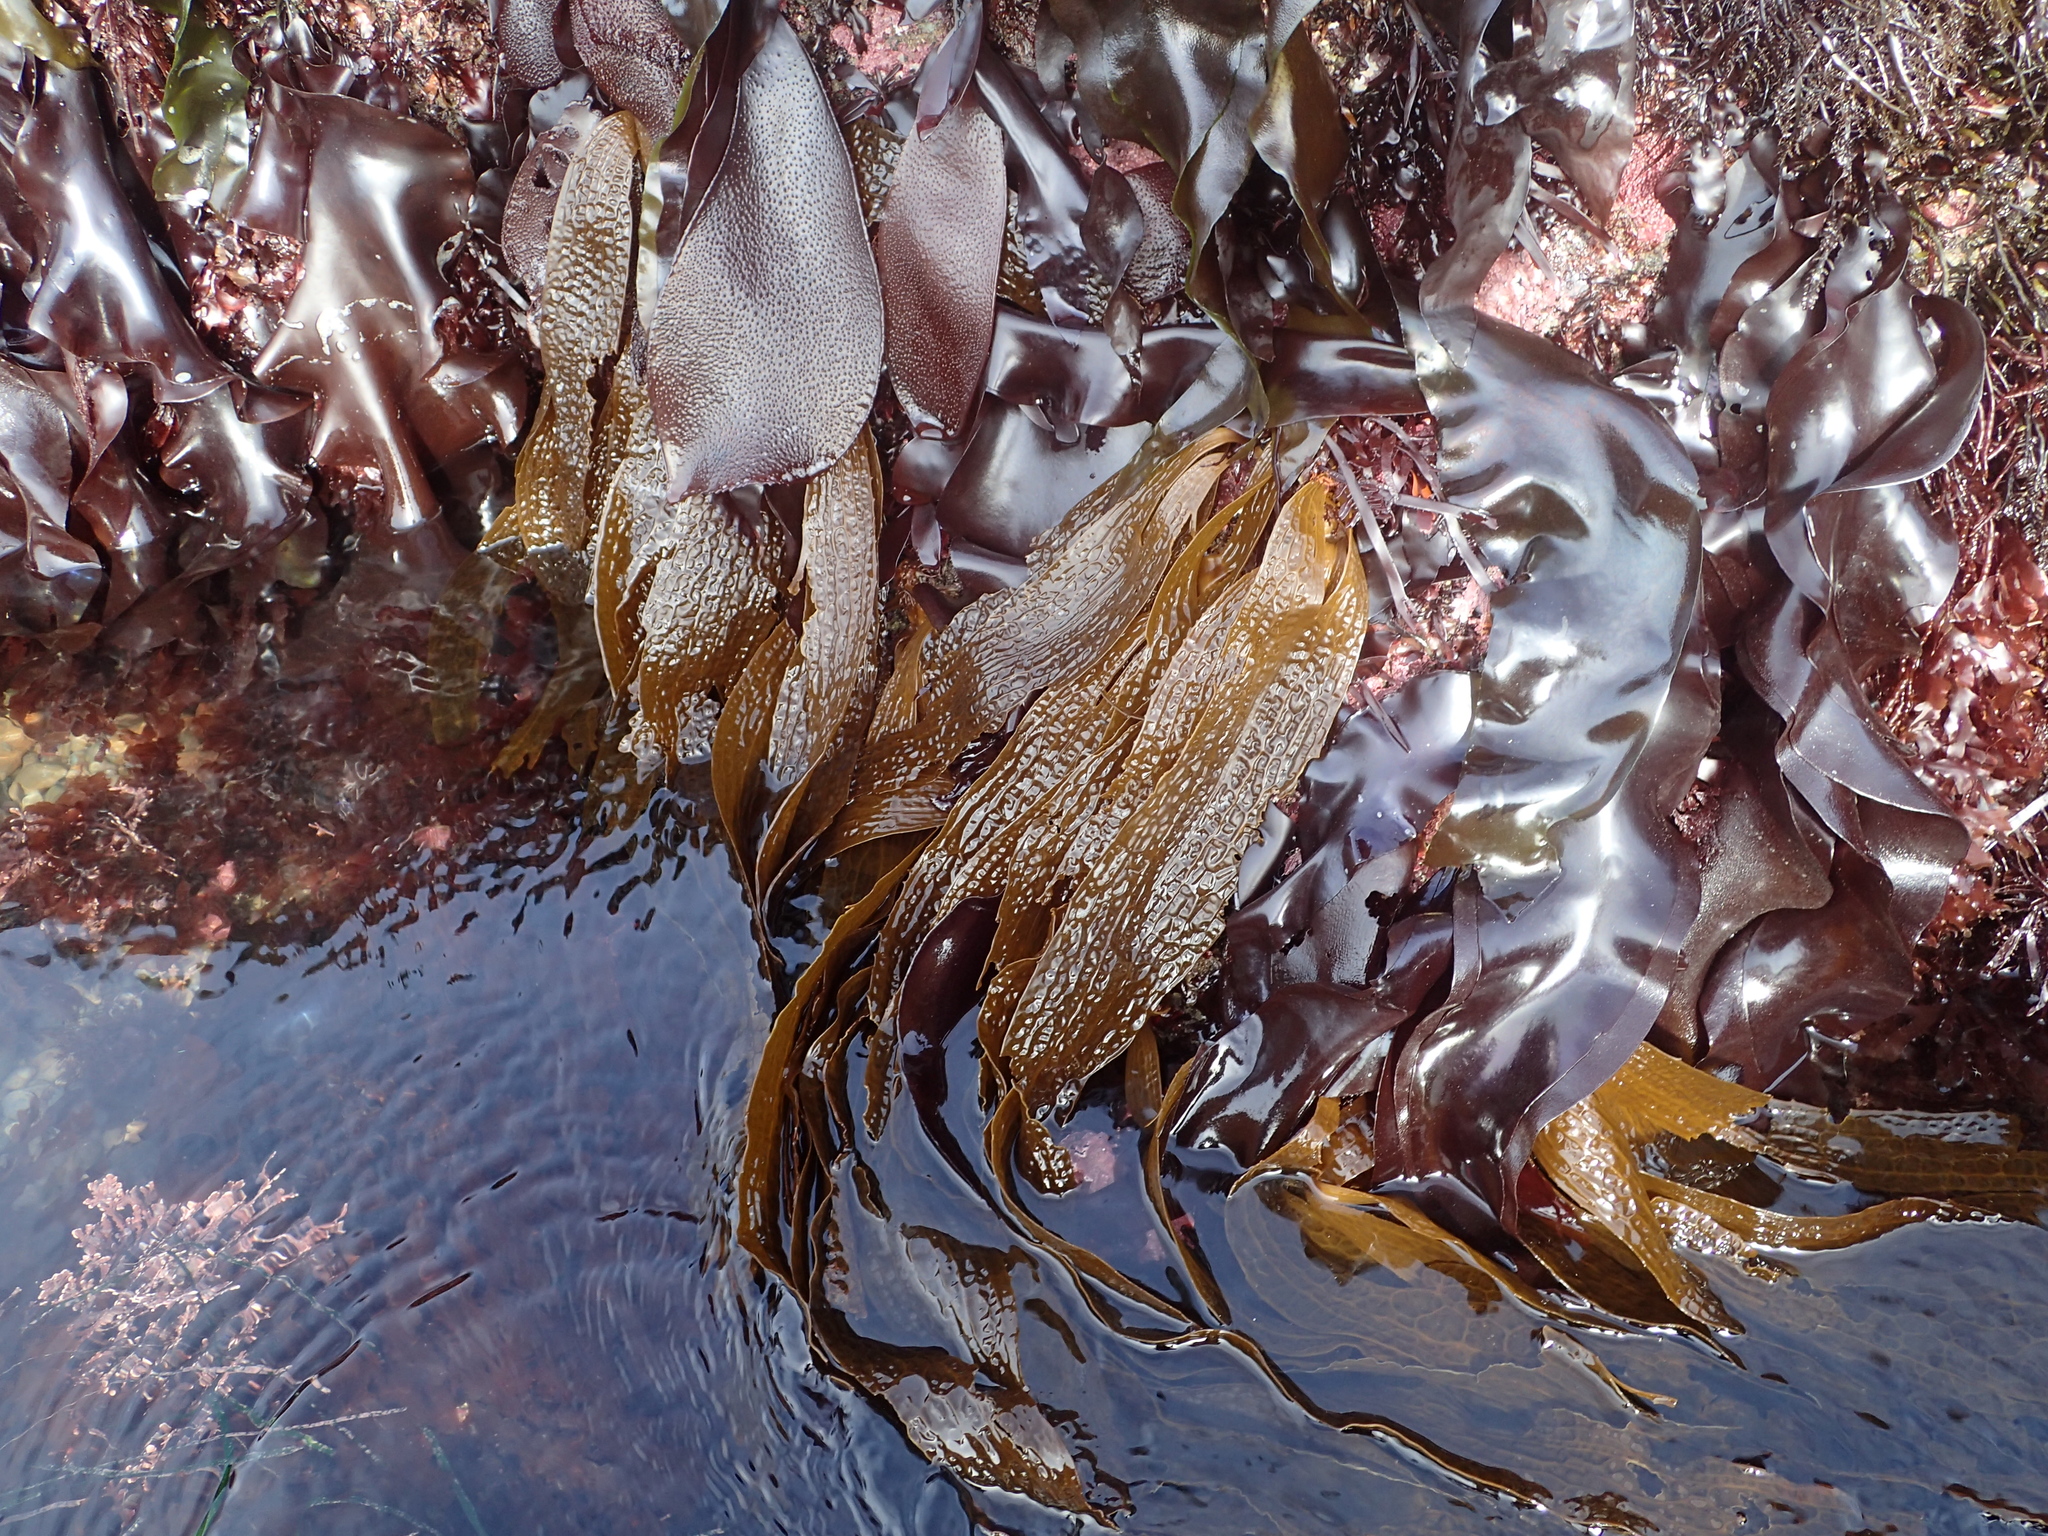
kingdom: Chromista
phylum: Ochrophyta
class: Phaeophyceae
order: Laminariales
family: Costariaceae
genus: Dictyoneurum
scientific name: Dictyoneurum californicum
